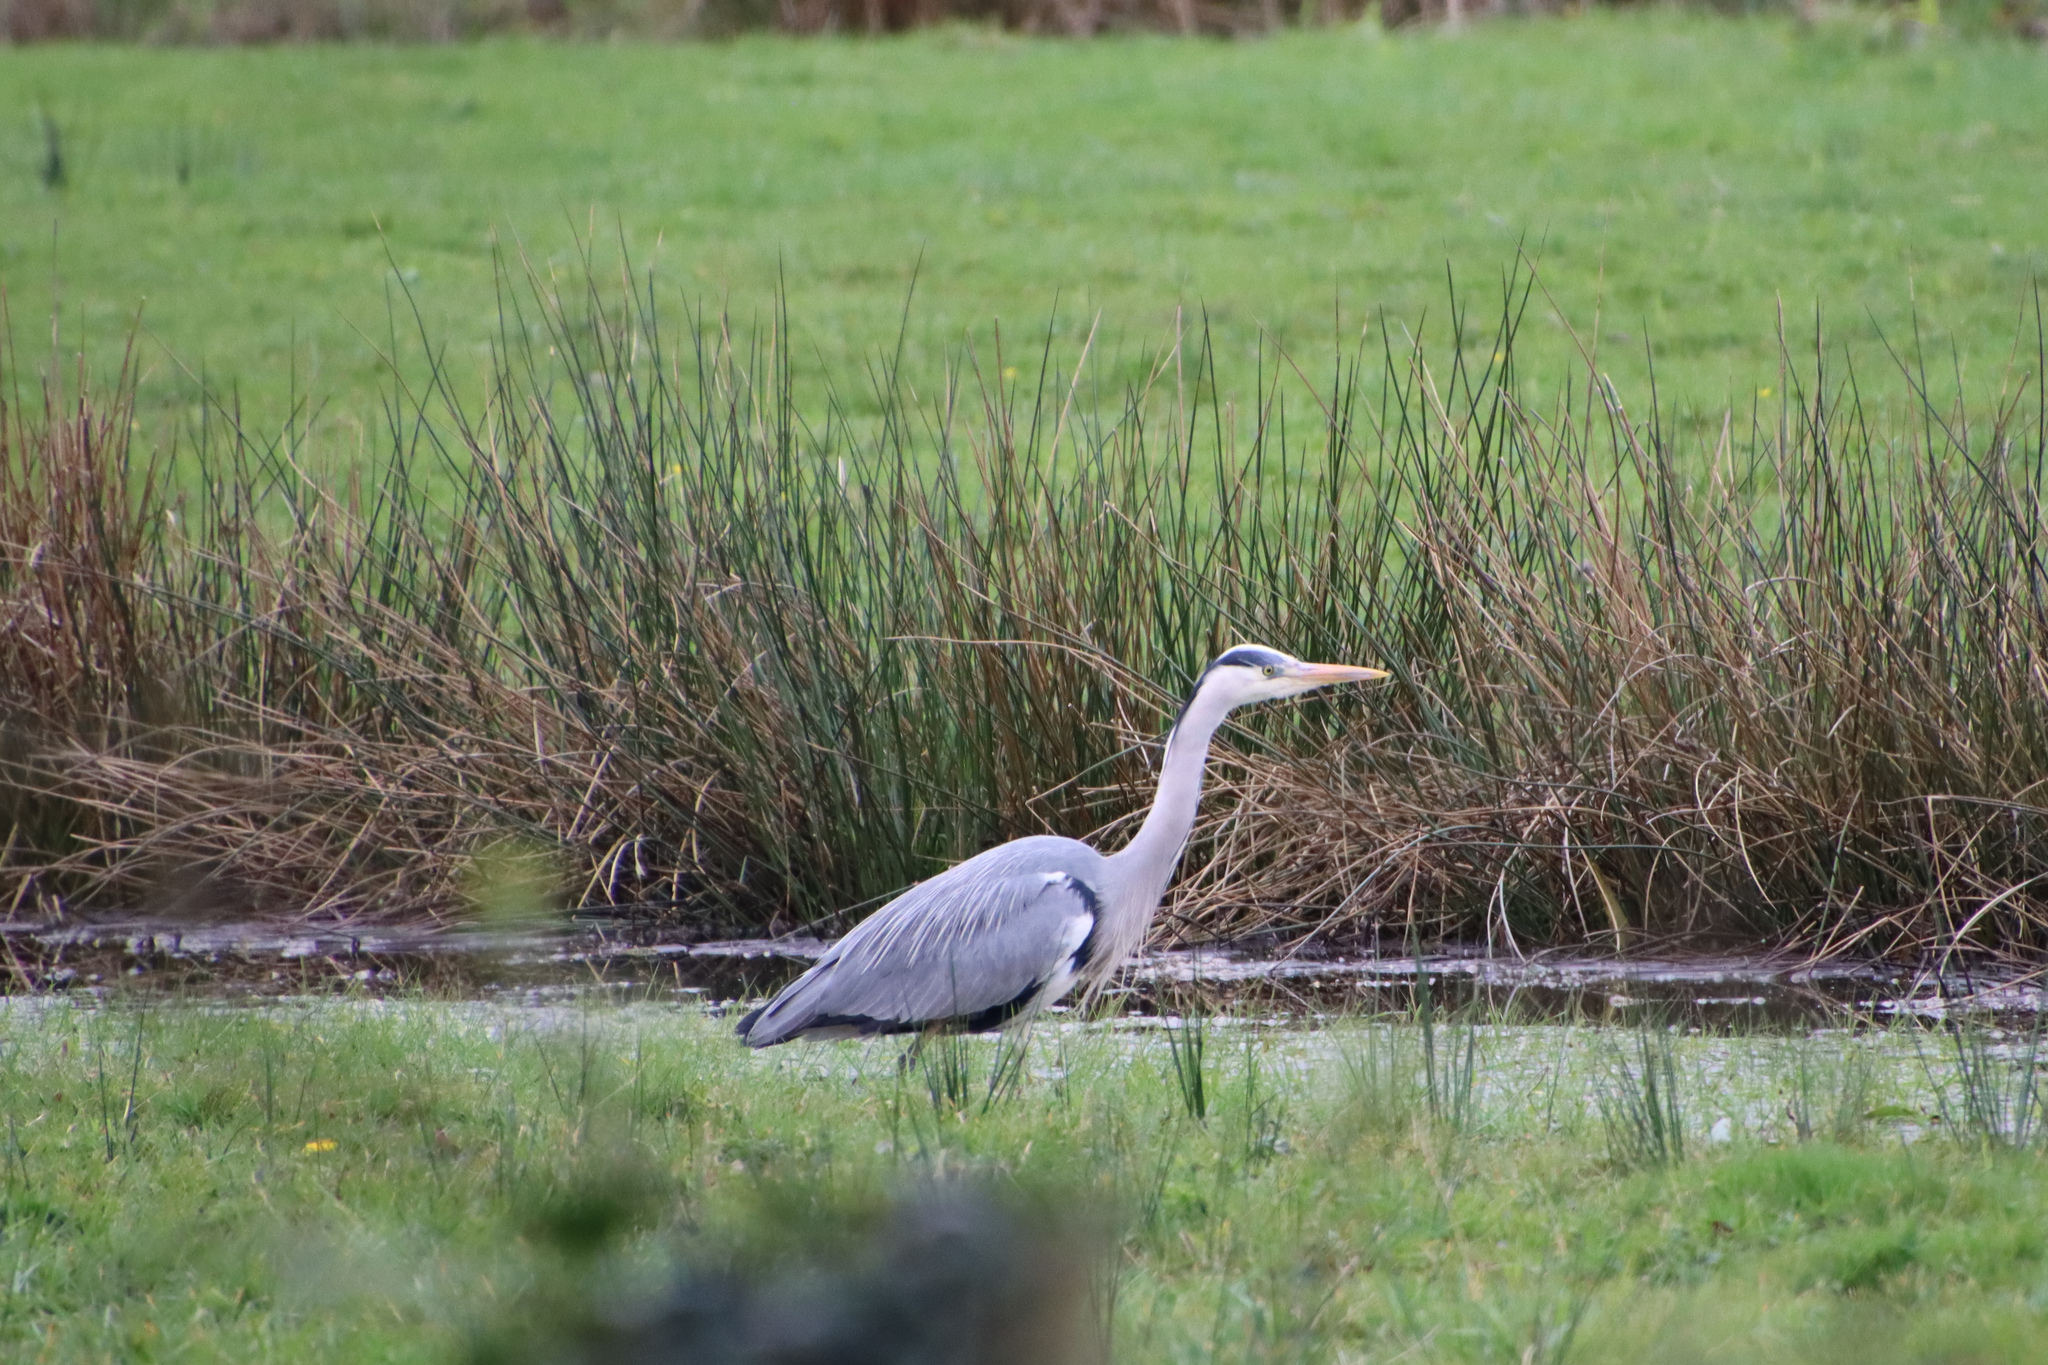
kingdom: Animalia
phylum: Chordata
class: Aves
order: Pelecaniformes
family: Ardeidae
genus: Ardea
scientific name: Ardea cinerea
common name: Grey heron
